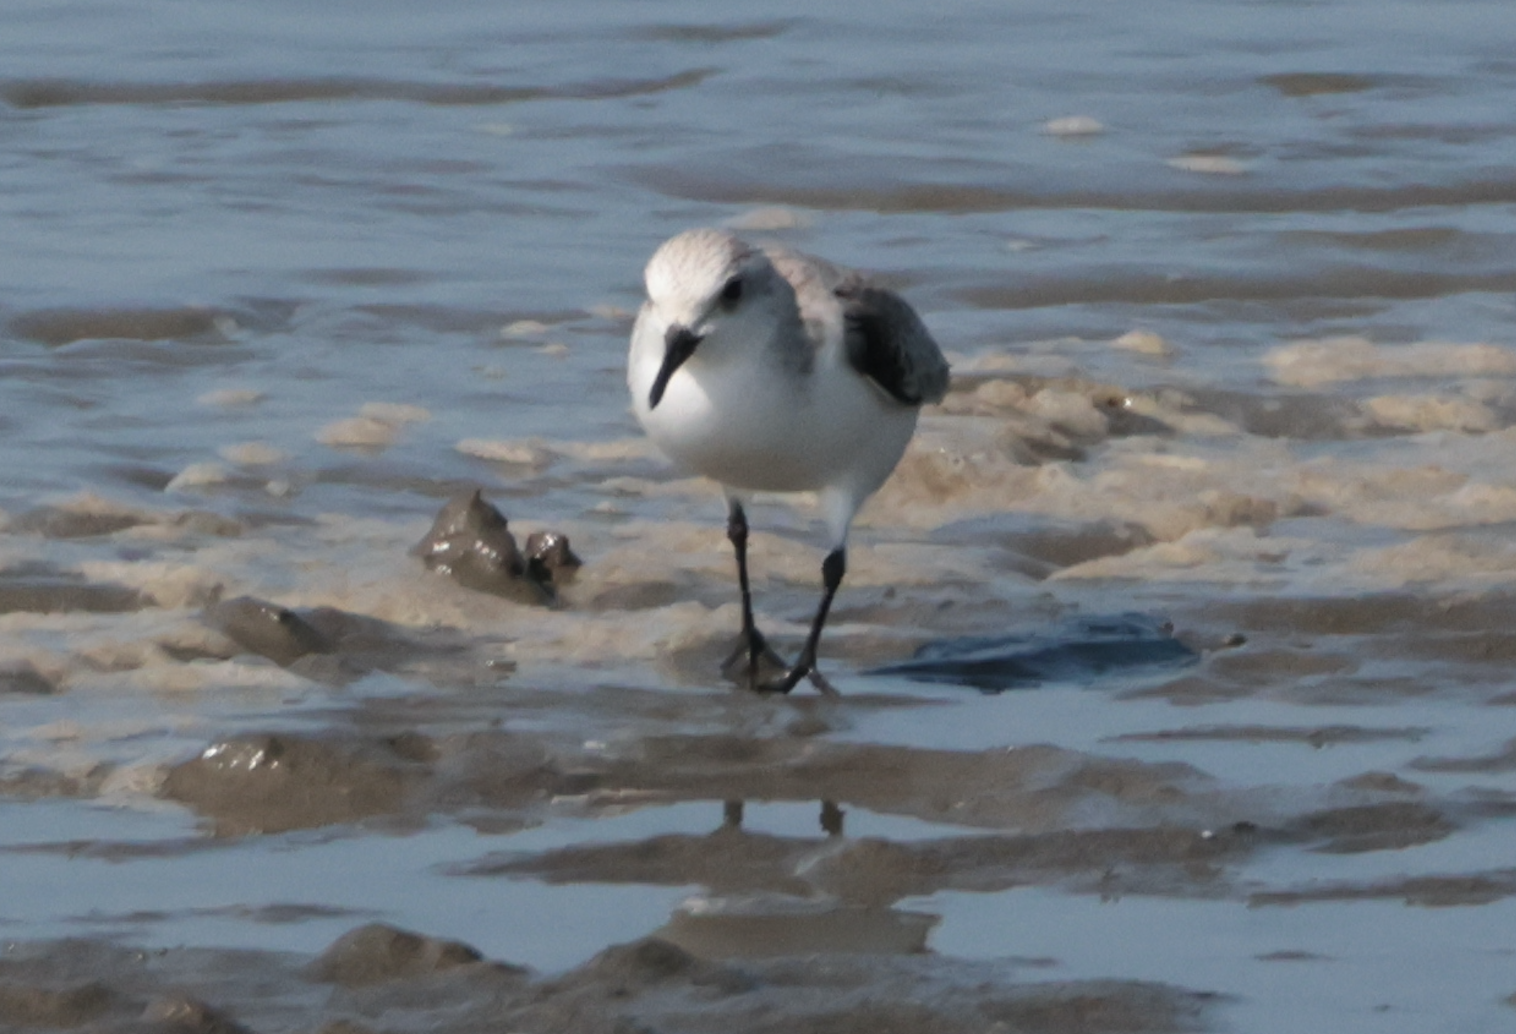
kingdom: Animalia
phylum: Chordata
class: Aves
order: Charadriiformes
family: Scolopacidae
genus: Calidris
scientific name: Calidris alba
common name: Sanderling
